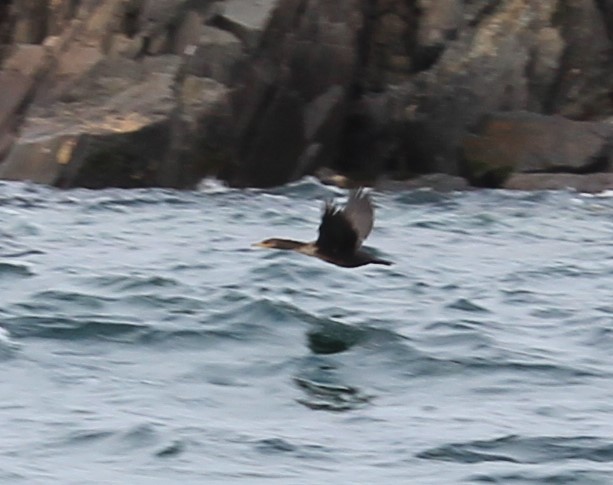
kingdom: Animalia
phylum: Chordata
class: Aves
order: Suliformes
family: Phalacrocoracidae
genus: Phalacrocorax
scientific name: Phalacrocorax auritus
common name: Double-crested cormorant
